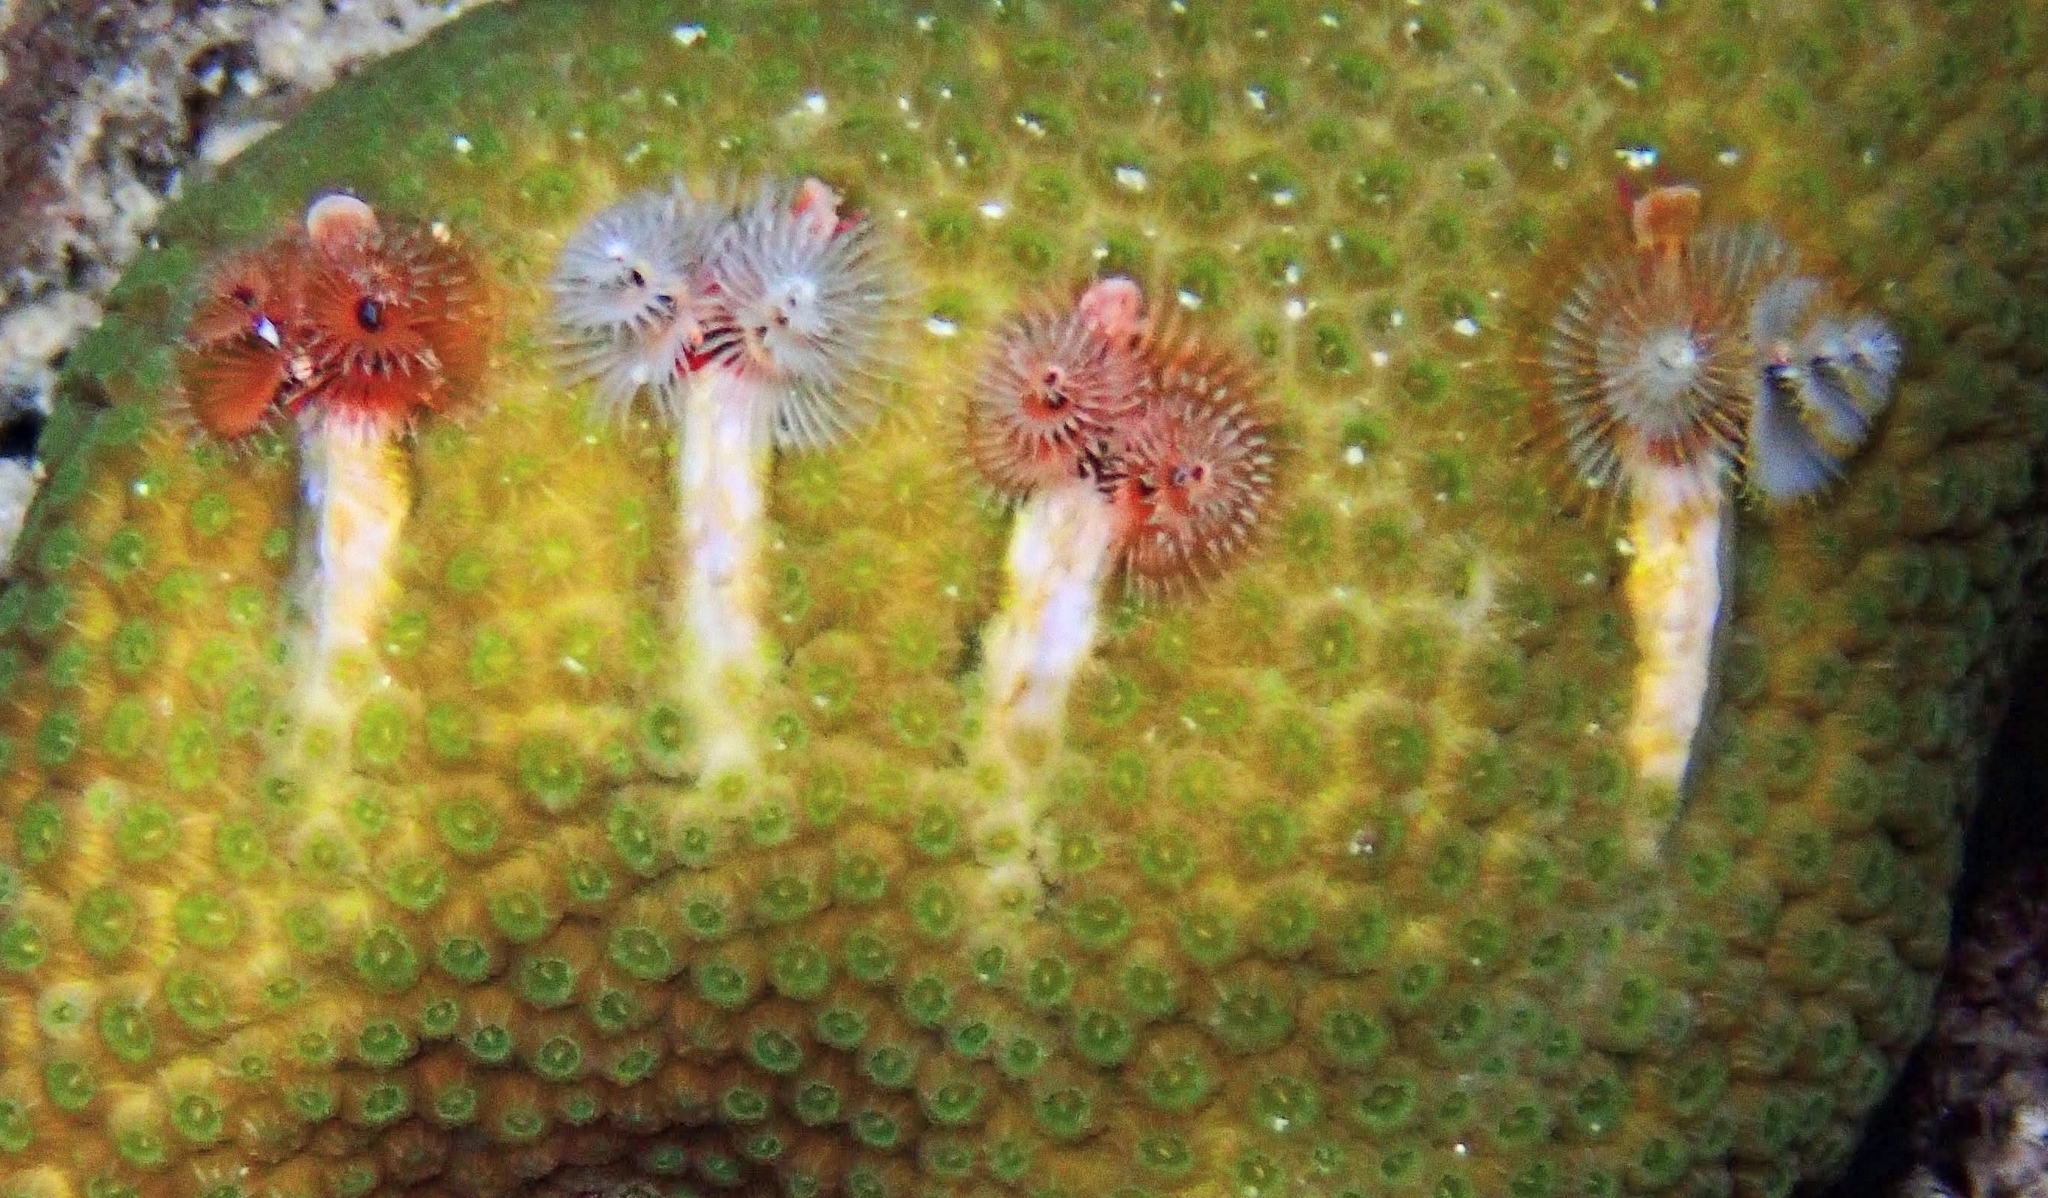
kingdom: Animalia
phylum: Annelida
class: Polychaeta
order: Sabellida
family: Serpulidae
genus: Spirobranchus
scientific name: Spirobranchus giganteus
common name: Christmas tree worm
